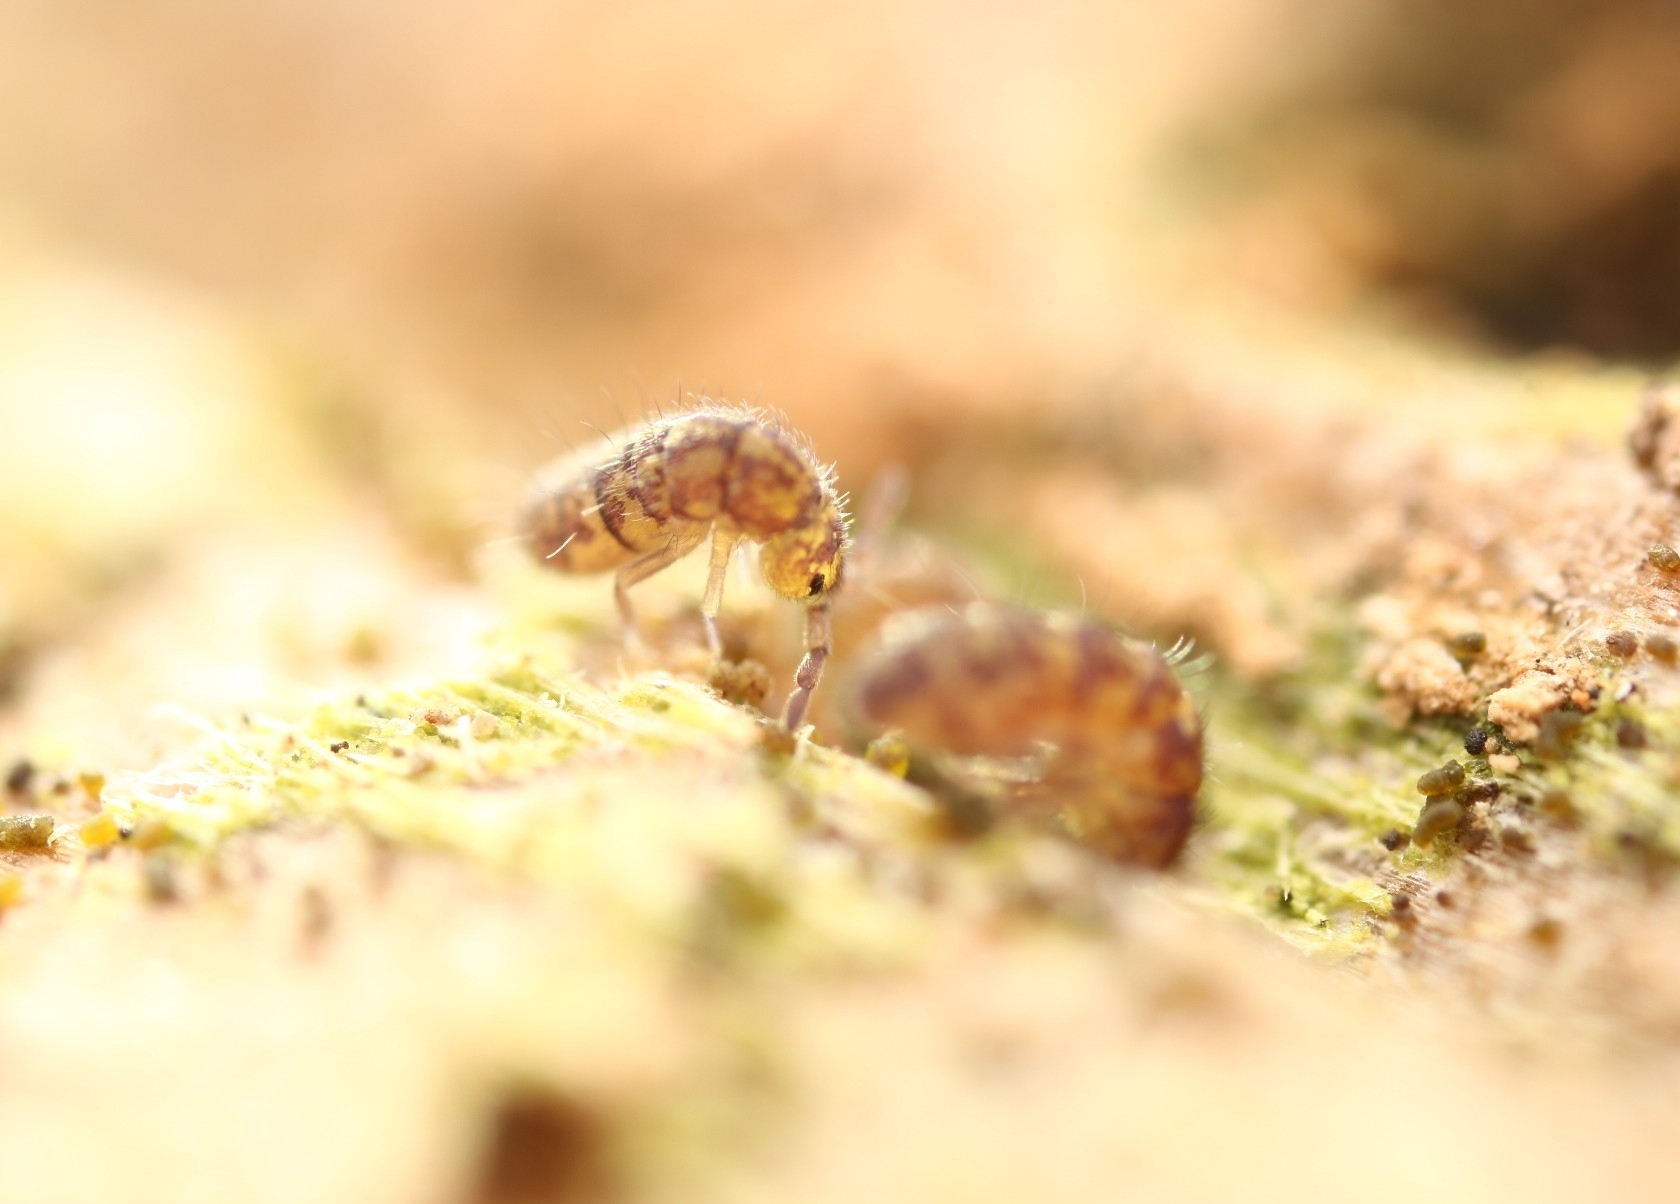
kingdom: Animalia
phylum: Arthropoda
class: Collembola
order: Entomobryomorpha
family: Isotomidae
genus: Isotoma
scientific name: Isotoma delta
